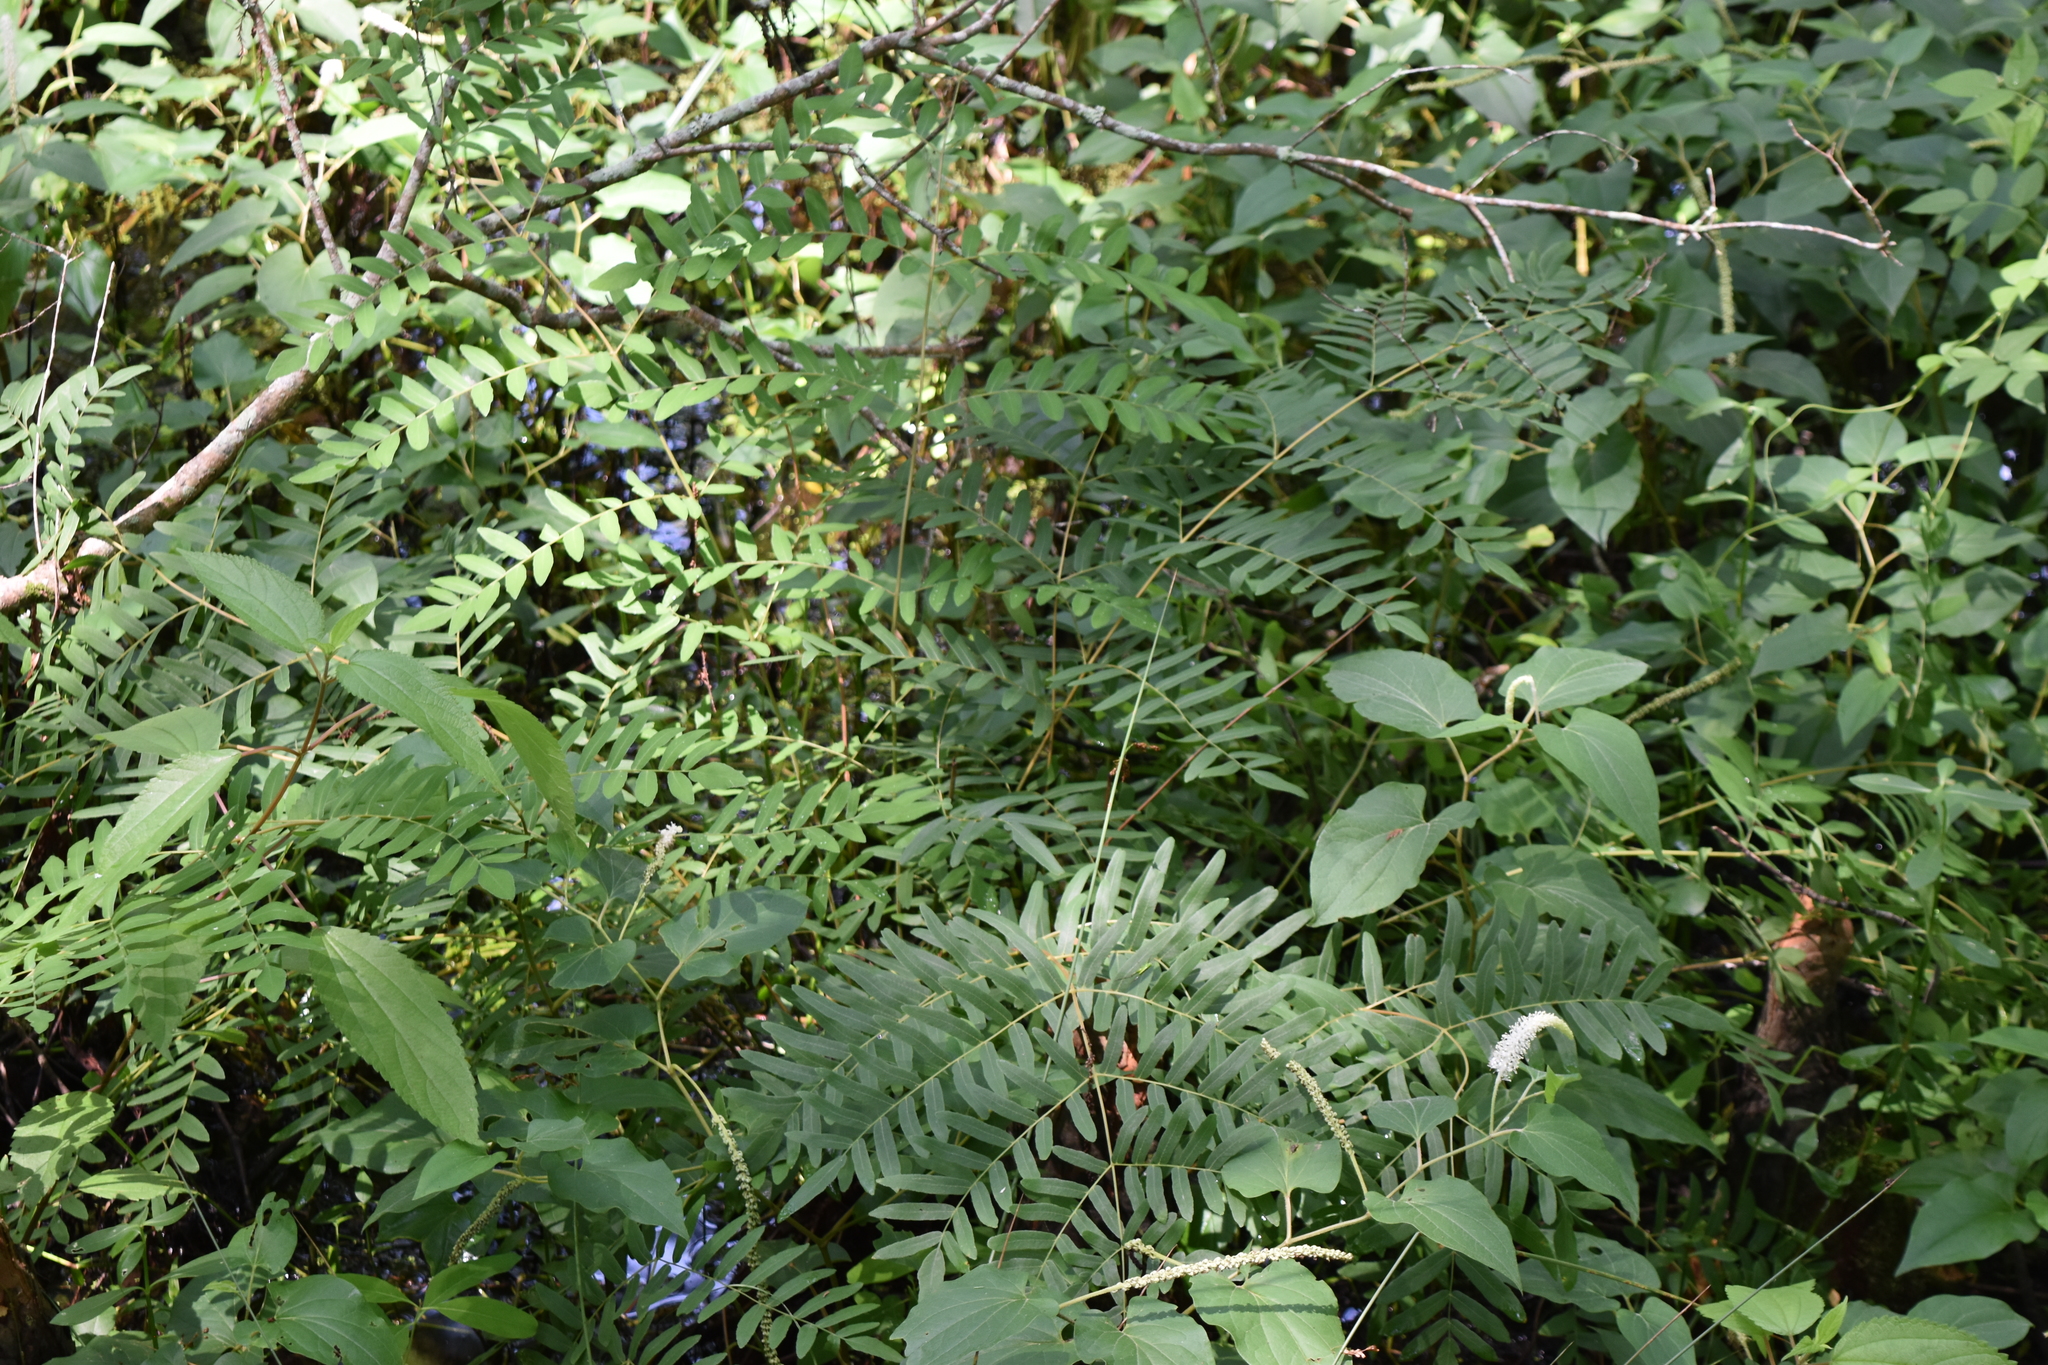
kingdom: Plantae
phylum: Tracheophyta
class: Polypodiopsida
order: Osmundales
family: Osmundaceae
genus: Osmunda
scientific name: Osmunda spectabilis
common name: American royal fern
